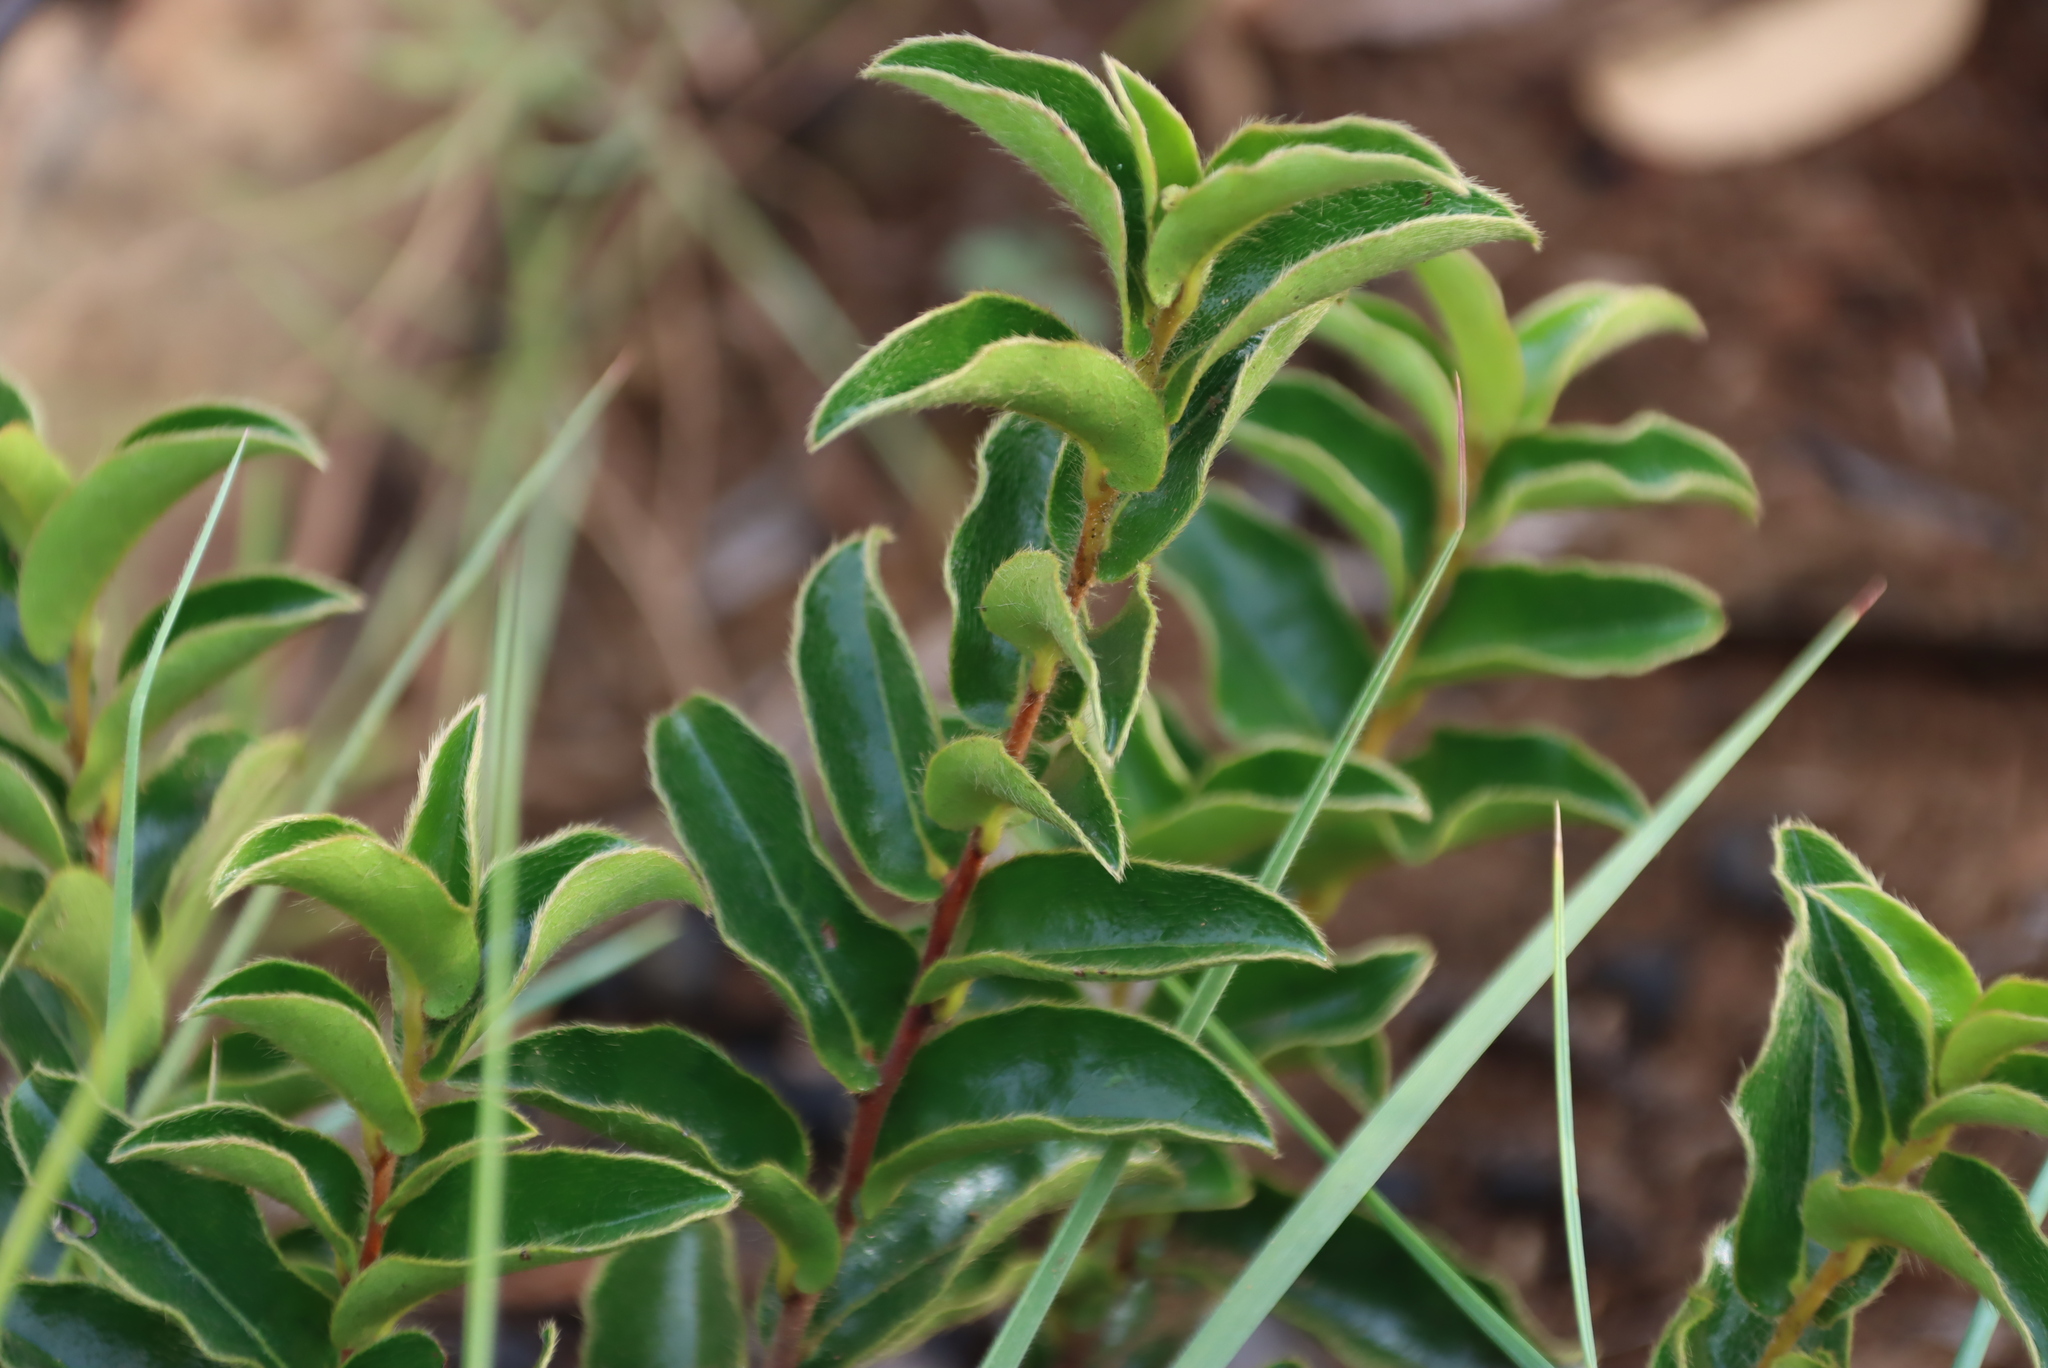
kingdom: Plantae
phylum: Tracheophyta
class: Magnoliopsida
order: Ericales
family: Ebenaceae
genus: Diospyros
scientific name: Diospyros whyteana
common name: Bladder-nut
